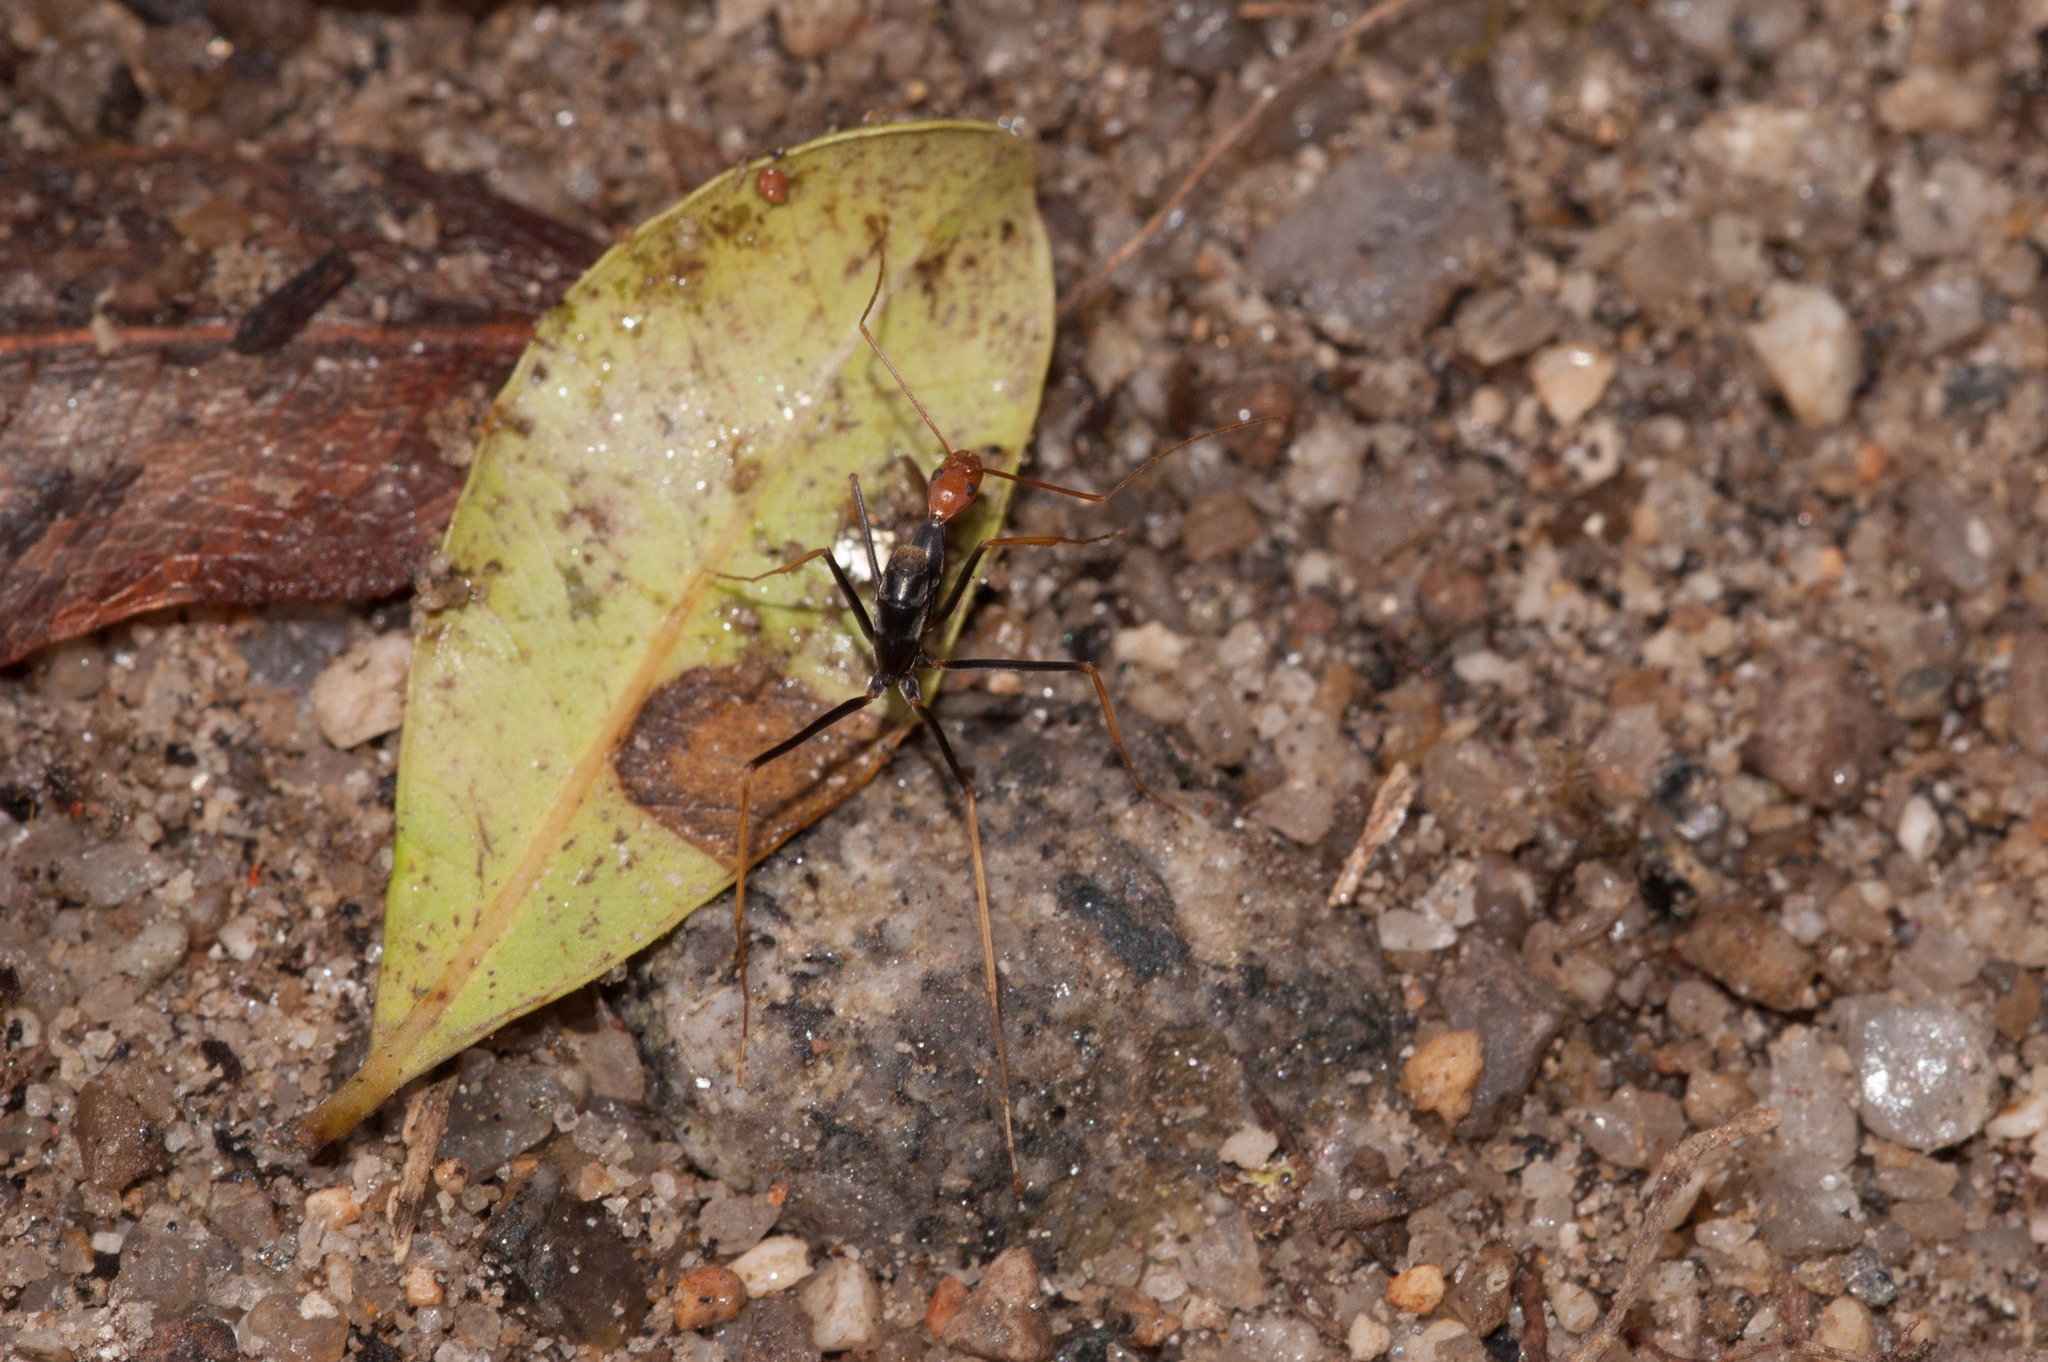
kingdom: Animalia
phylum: Arthropoda
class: Insecta
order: Hymenoptera
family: Formicidae
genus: Leptomyrmex
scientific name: Leptomyrmex ruficeps
